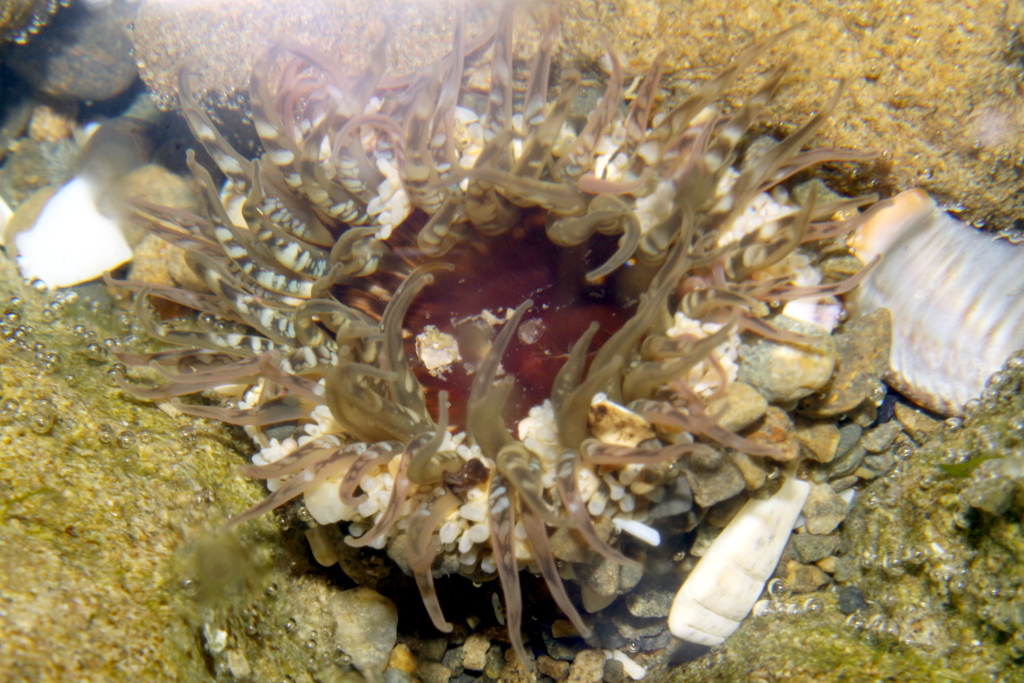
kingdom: Animalia
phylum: Cnidaria
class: Anthozoa
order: Actiniaria
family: Actiniidae
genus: Oulactis
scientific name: Oulactis muscosa
